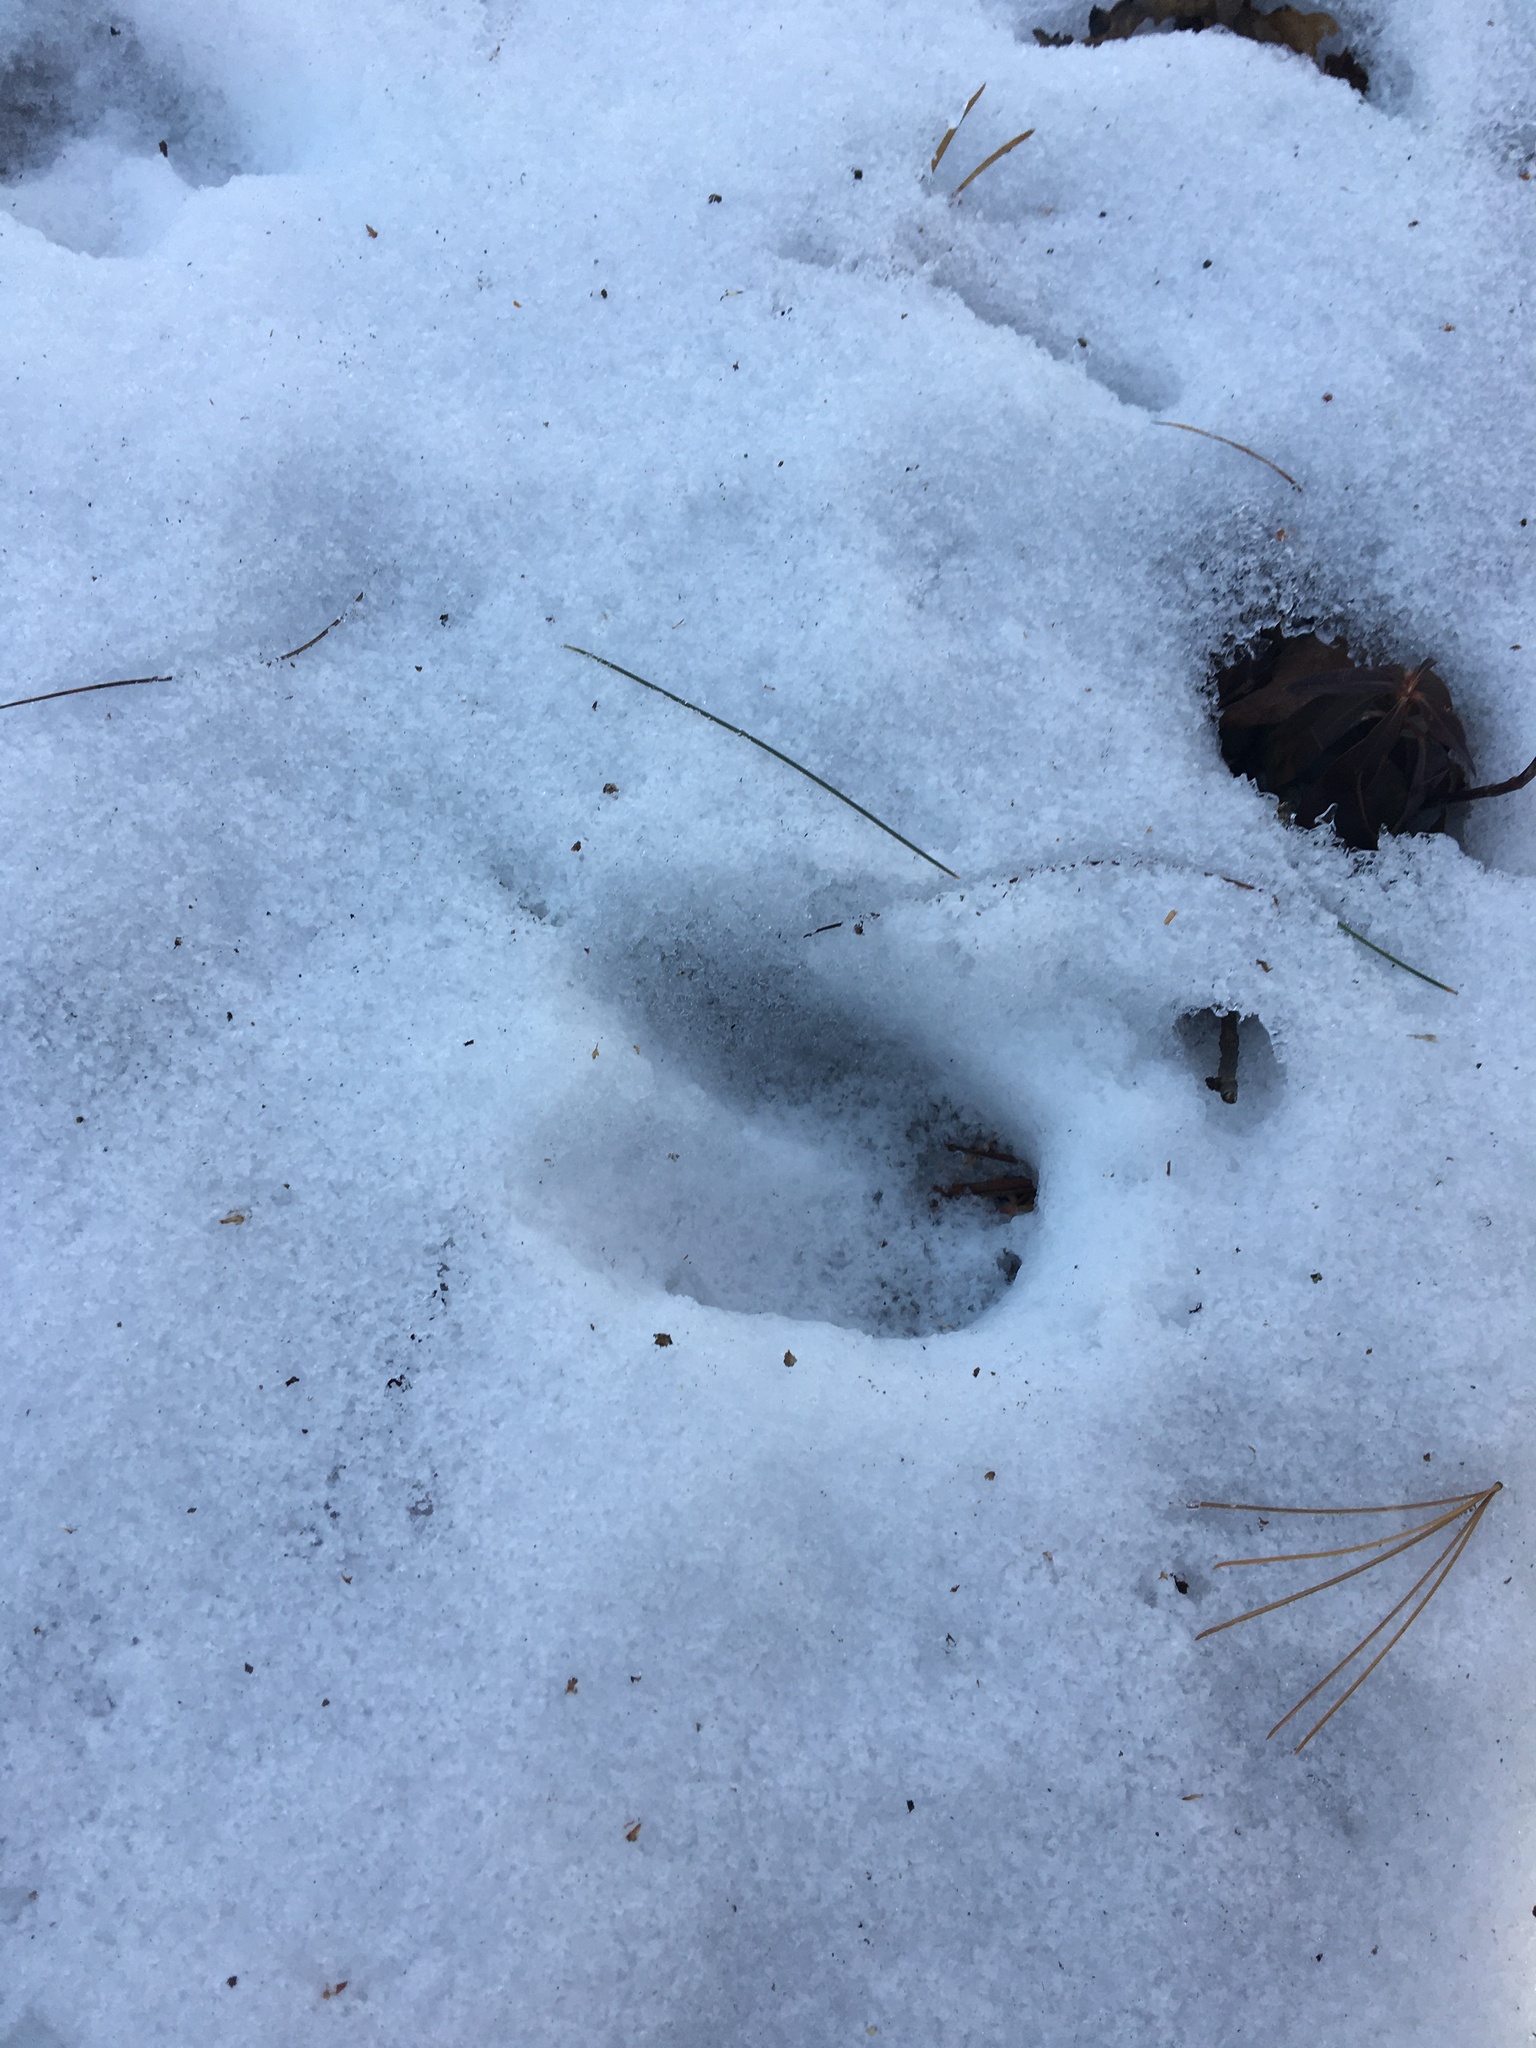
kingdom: Animalia
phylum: Chordata
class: Mammalia
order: Artiodactyla
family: Cervidae
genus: Odocoileus
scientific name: Odocoileus virginianus
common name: White-tailed deer
